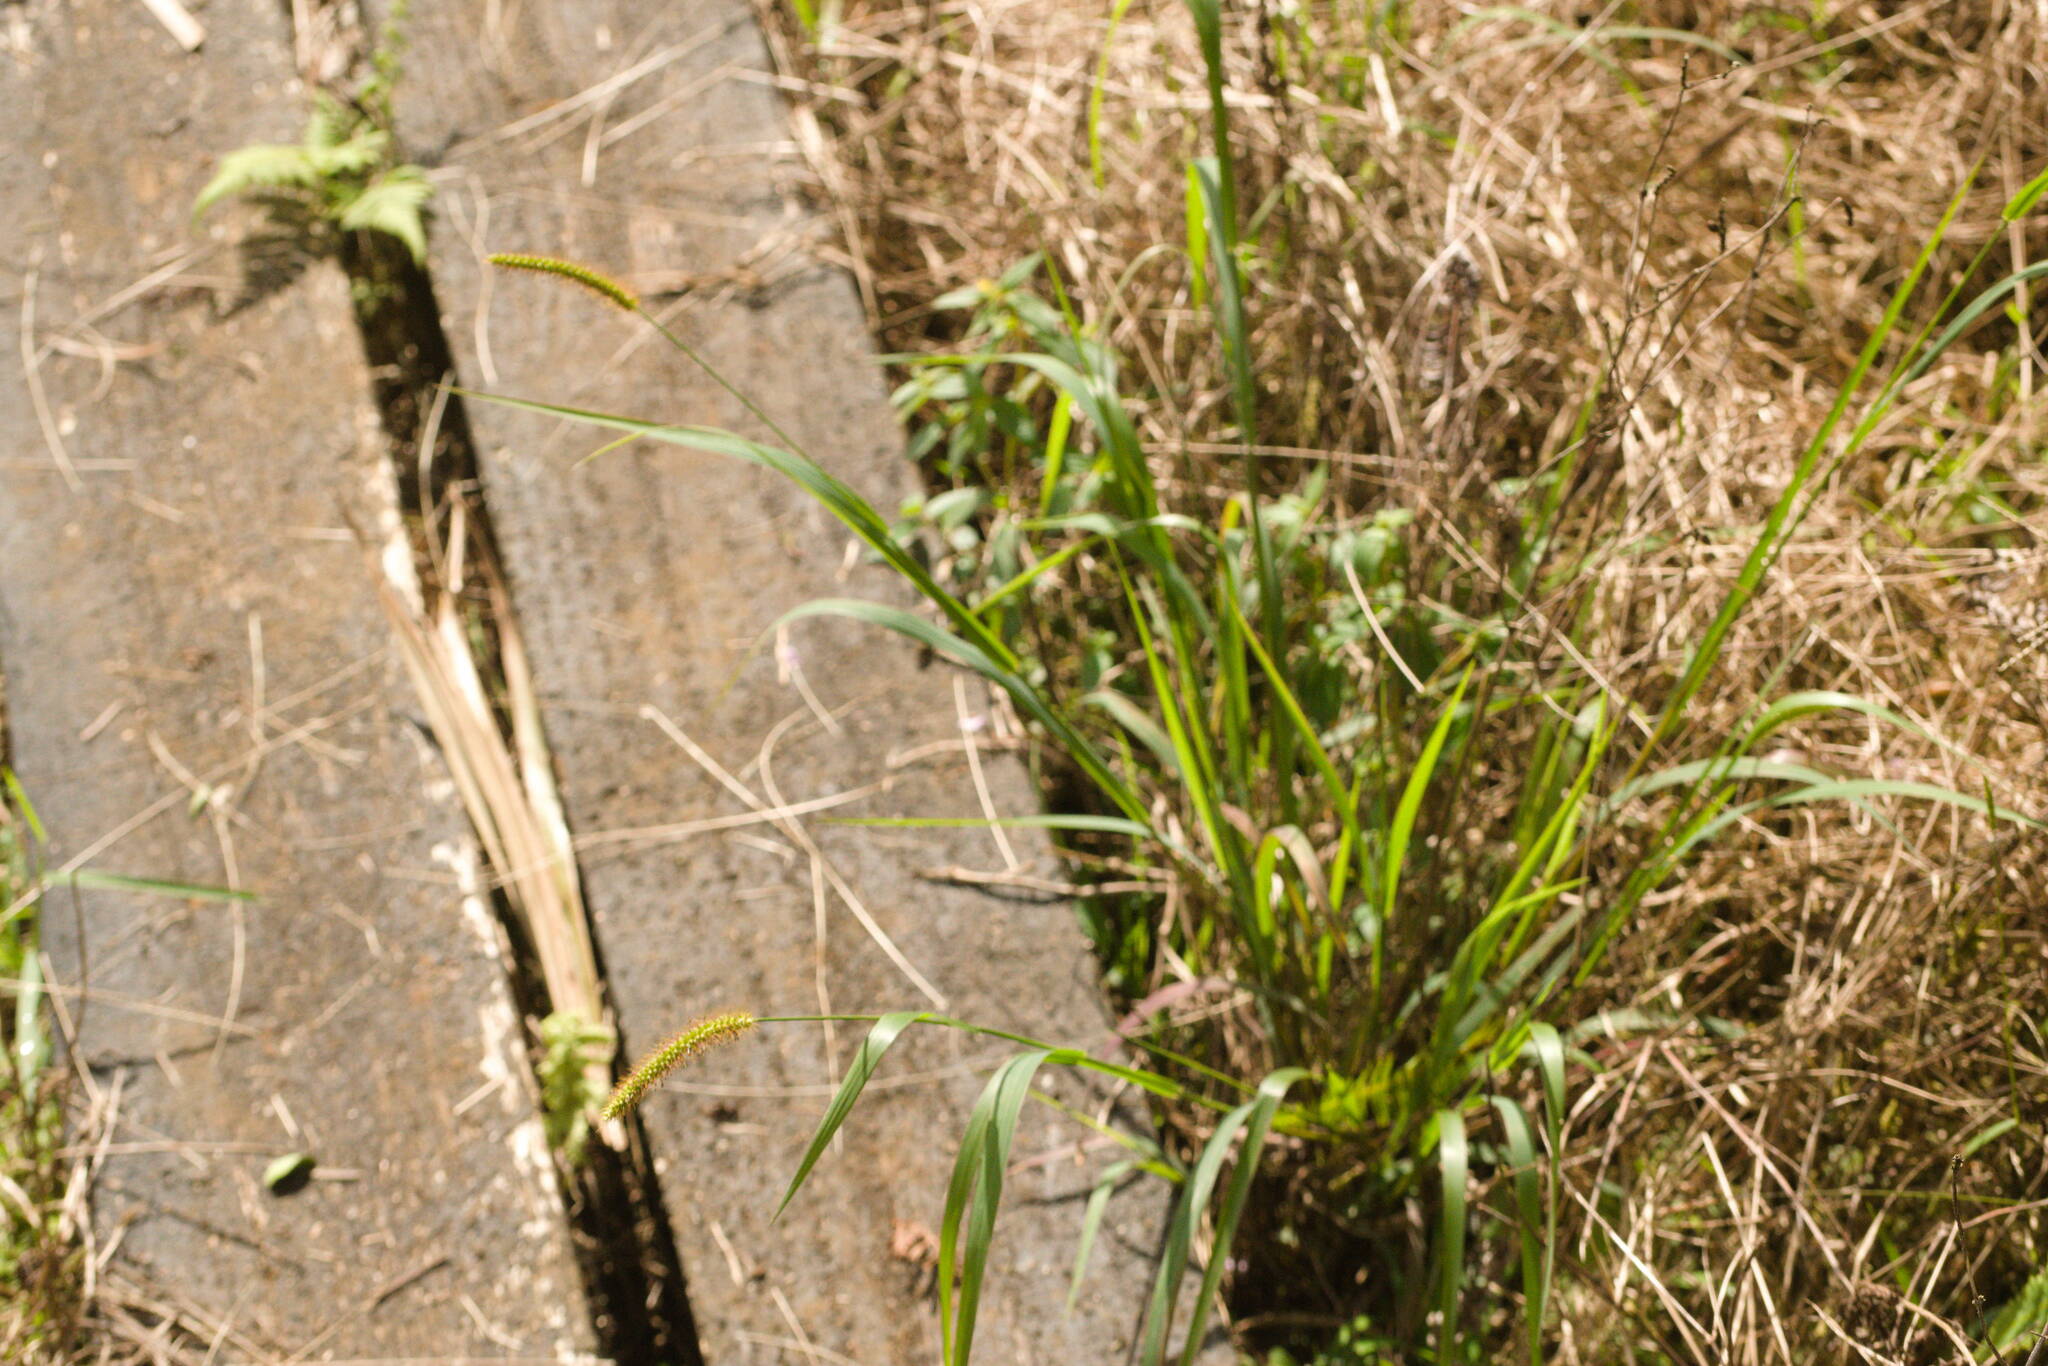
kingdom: Plantae
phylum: Tracheophyta
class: Liliopsida
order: Poales
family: Poaceae
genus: Setaria
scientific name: Setaria parviflora
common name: Knotroot bristle-grass
